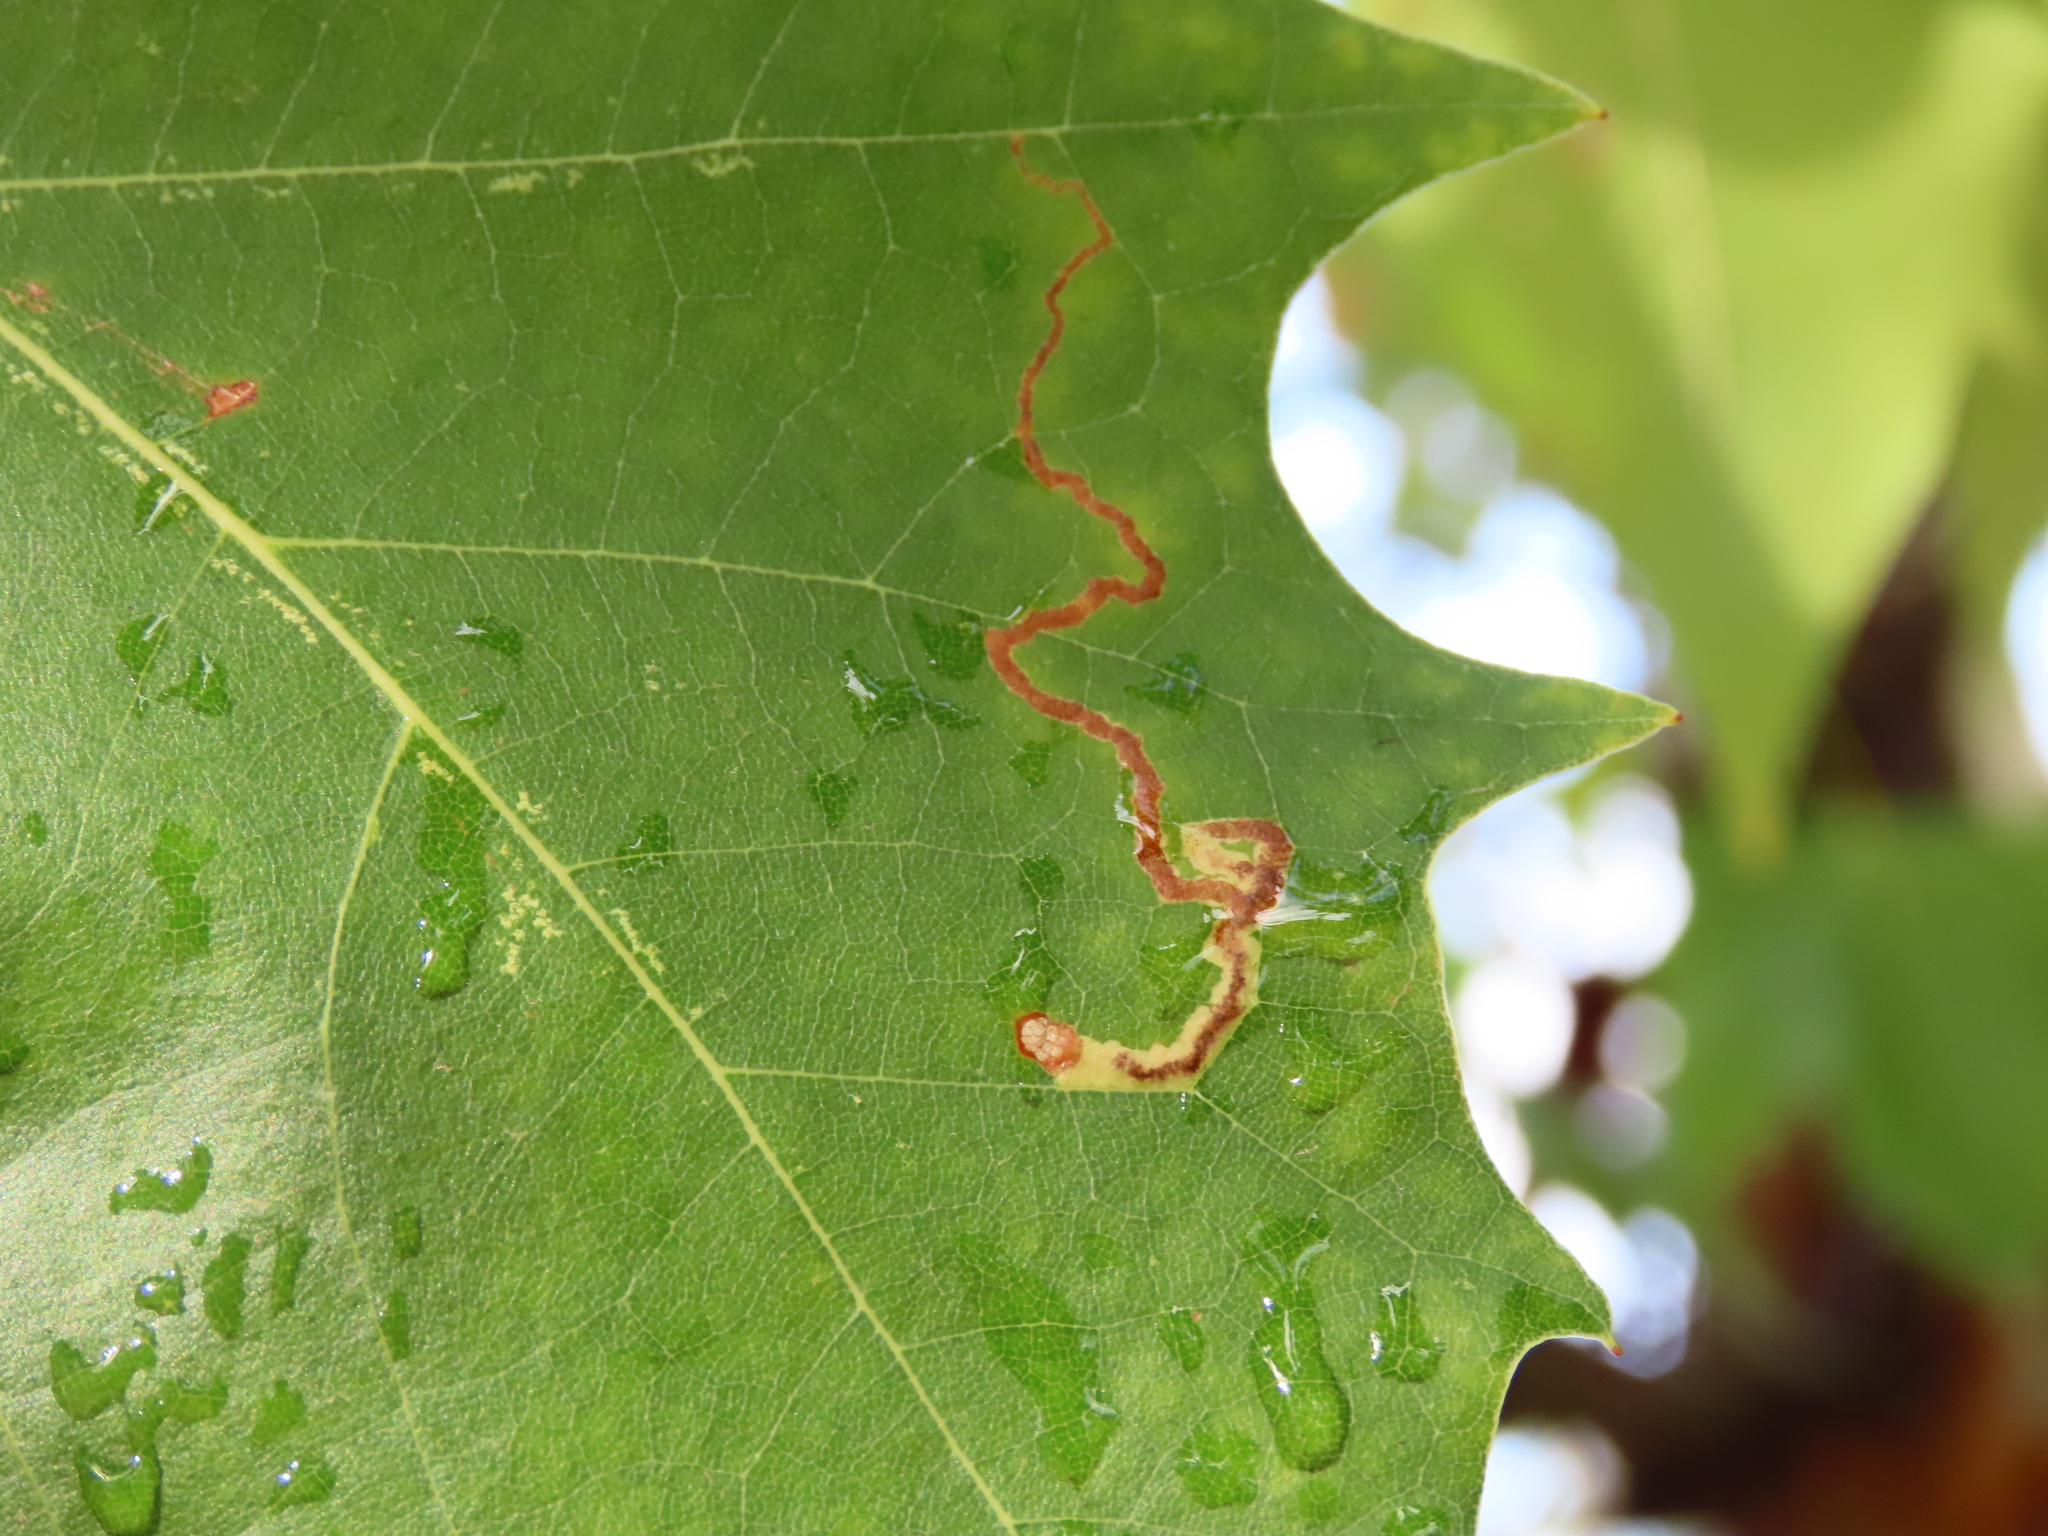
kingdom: Animalia
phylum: Arthropoda
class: Insecta
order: Lepidoptera
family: Nepticulidae
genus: Acalyptris
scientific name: Acalyptris platani
